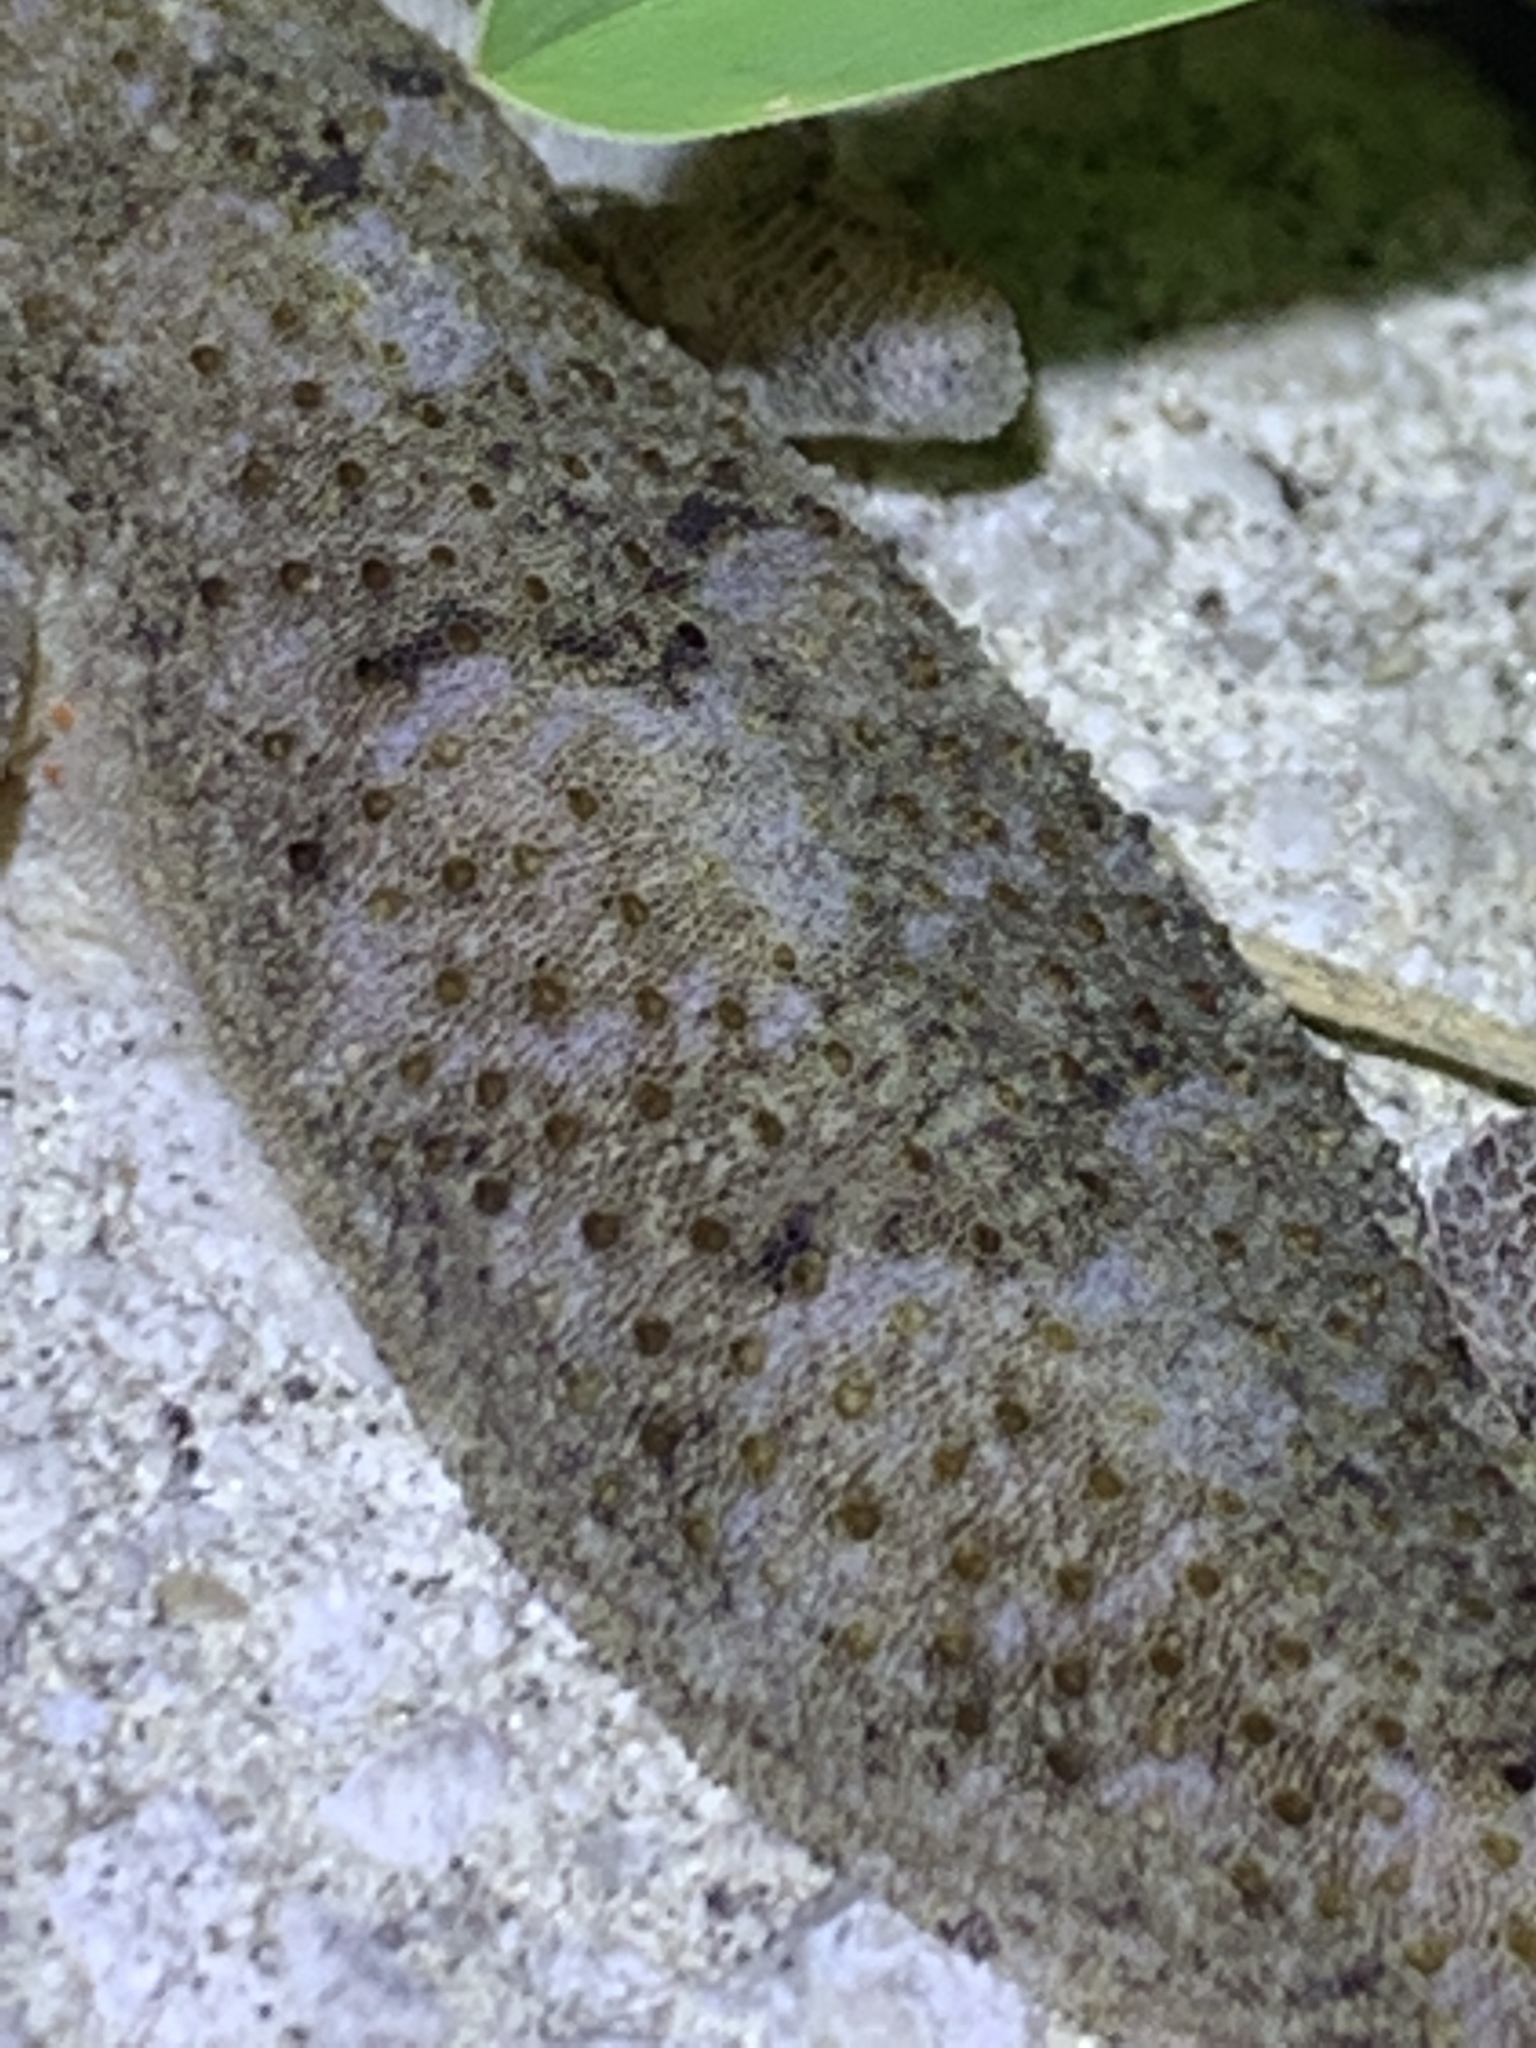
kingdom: Animalia
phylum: Chordata
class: Squamata
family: Gekkonidae
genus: Hemidactylus
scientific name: Hemidactylus mabouia
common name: House gecko
